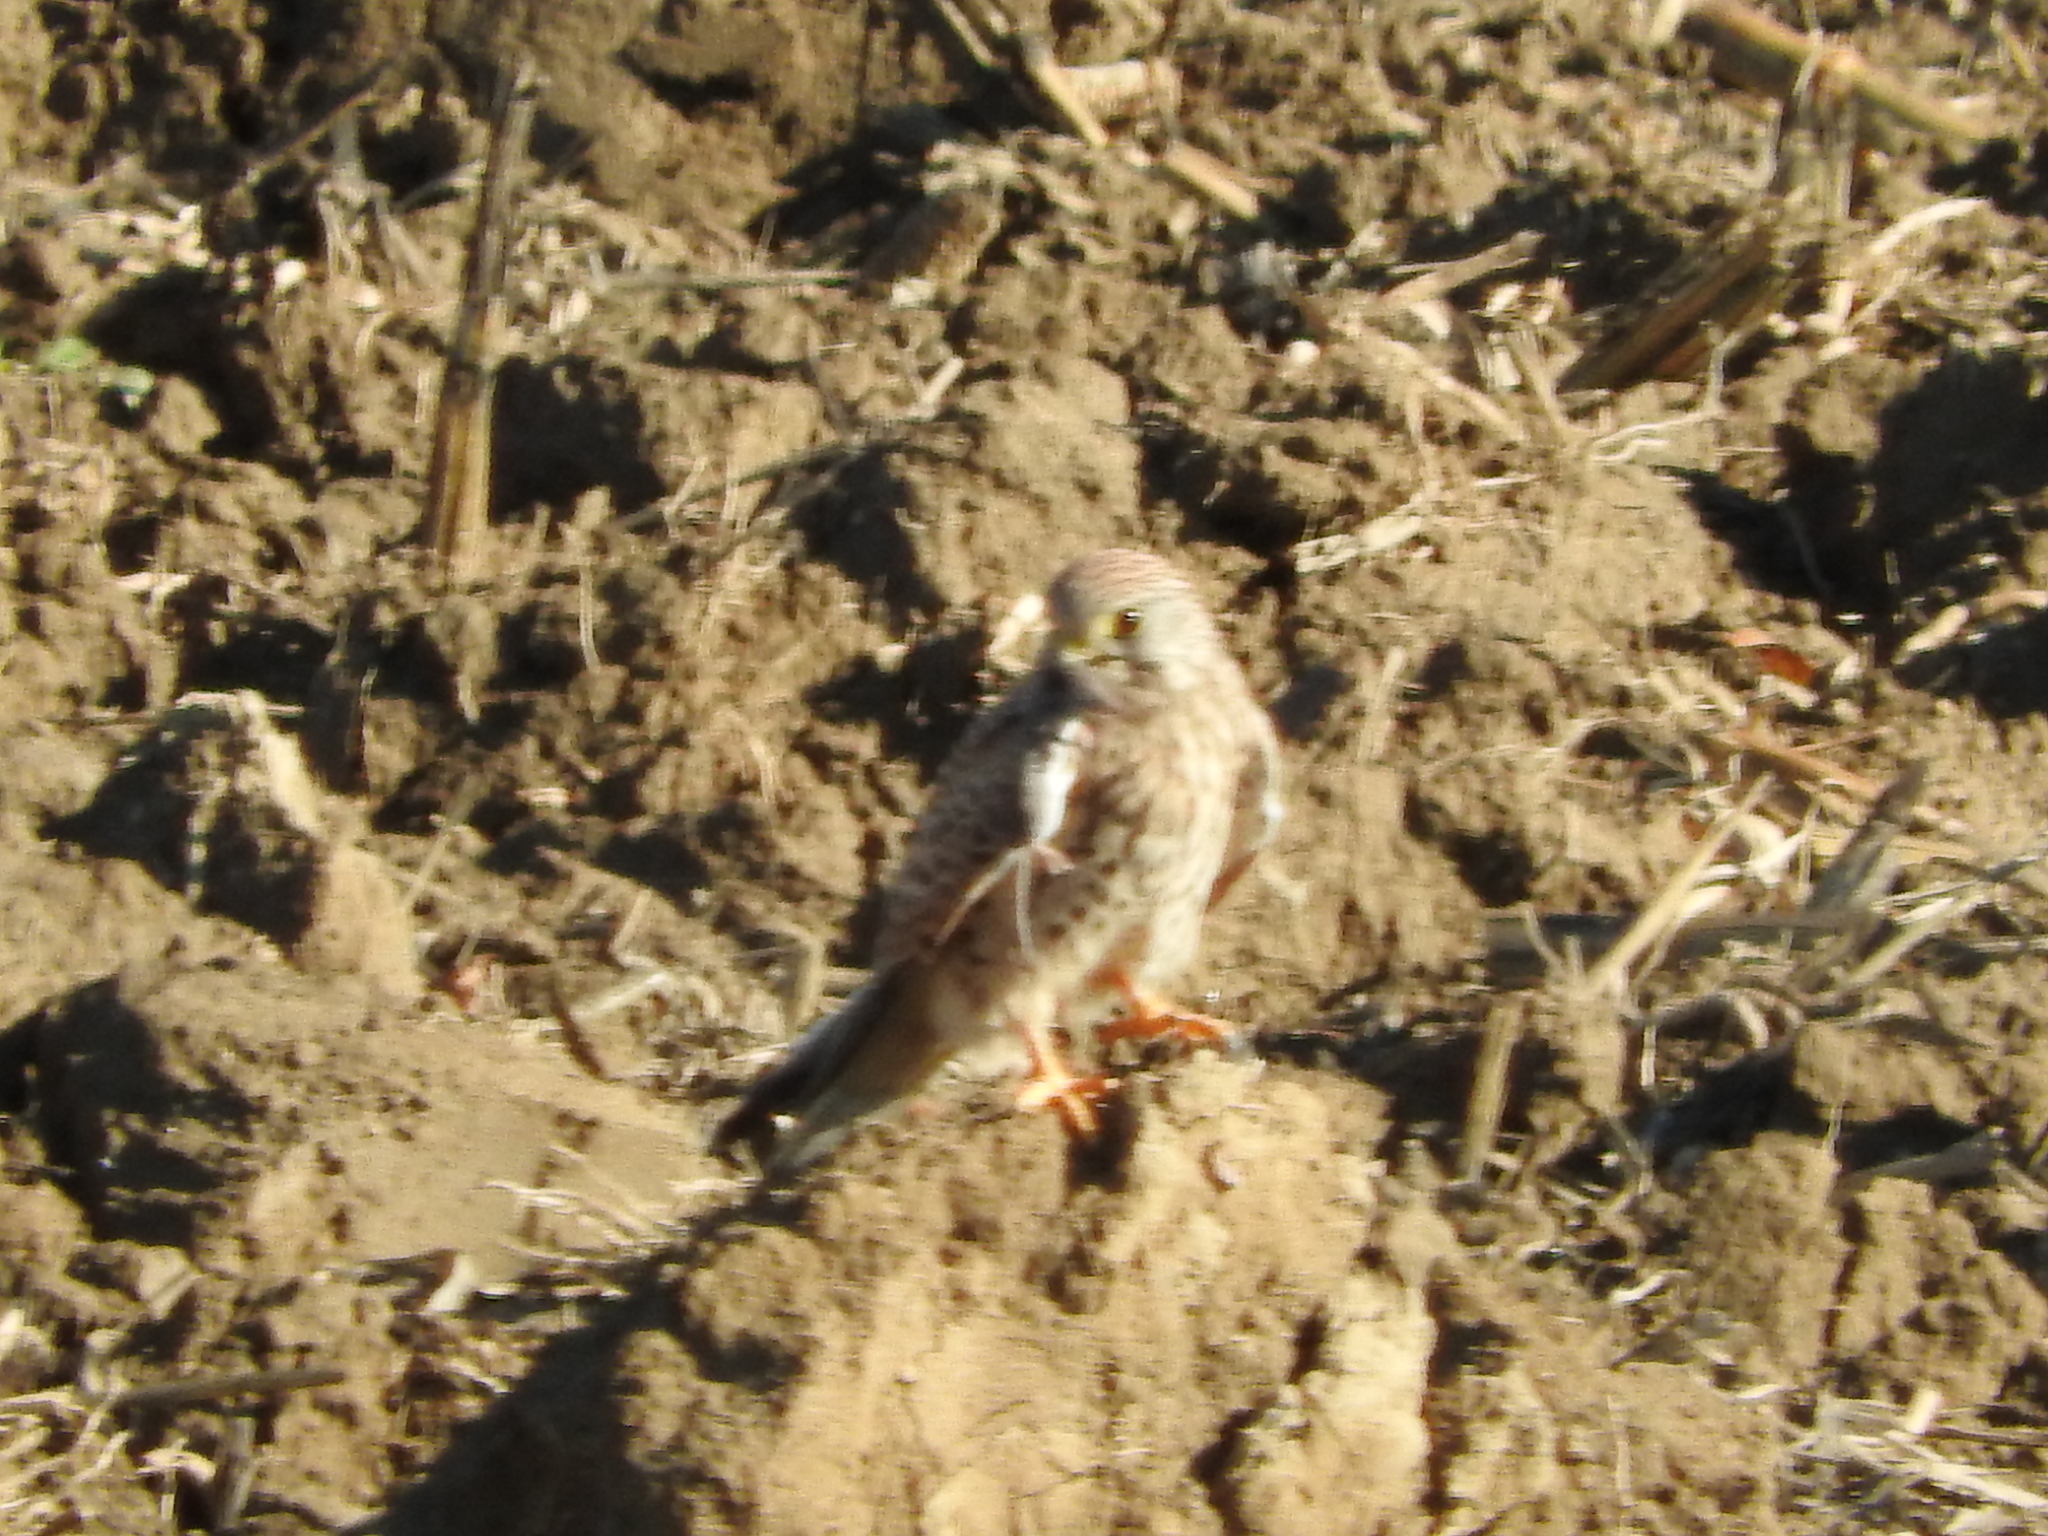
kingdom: Animalia
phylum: Chordata
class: Aves
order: Falconiformes
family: Falconidae
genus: Falco
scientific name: Falco tinnunculus
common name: Common kestrel
